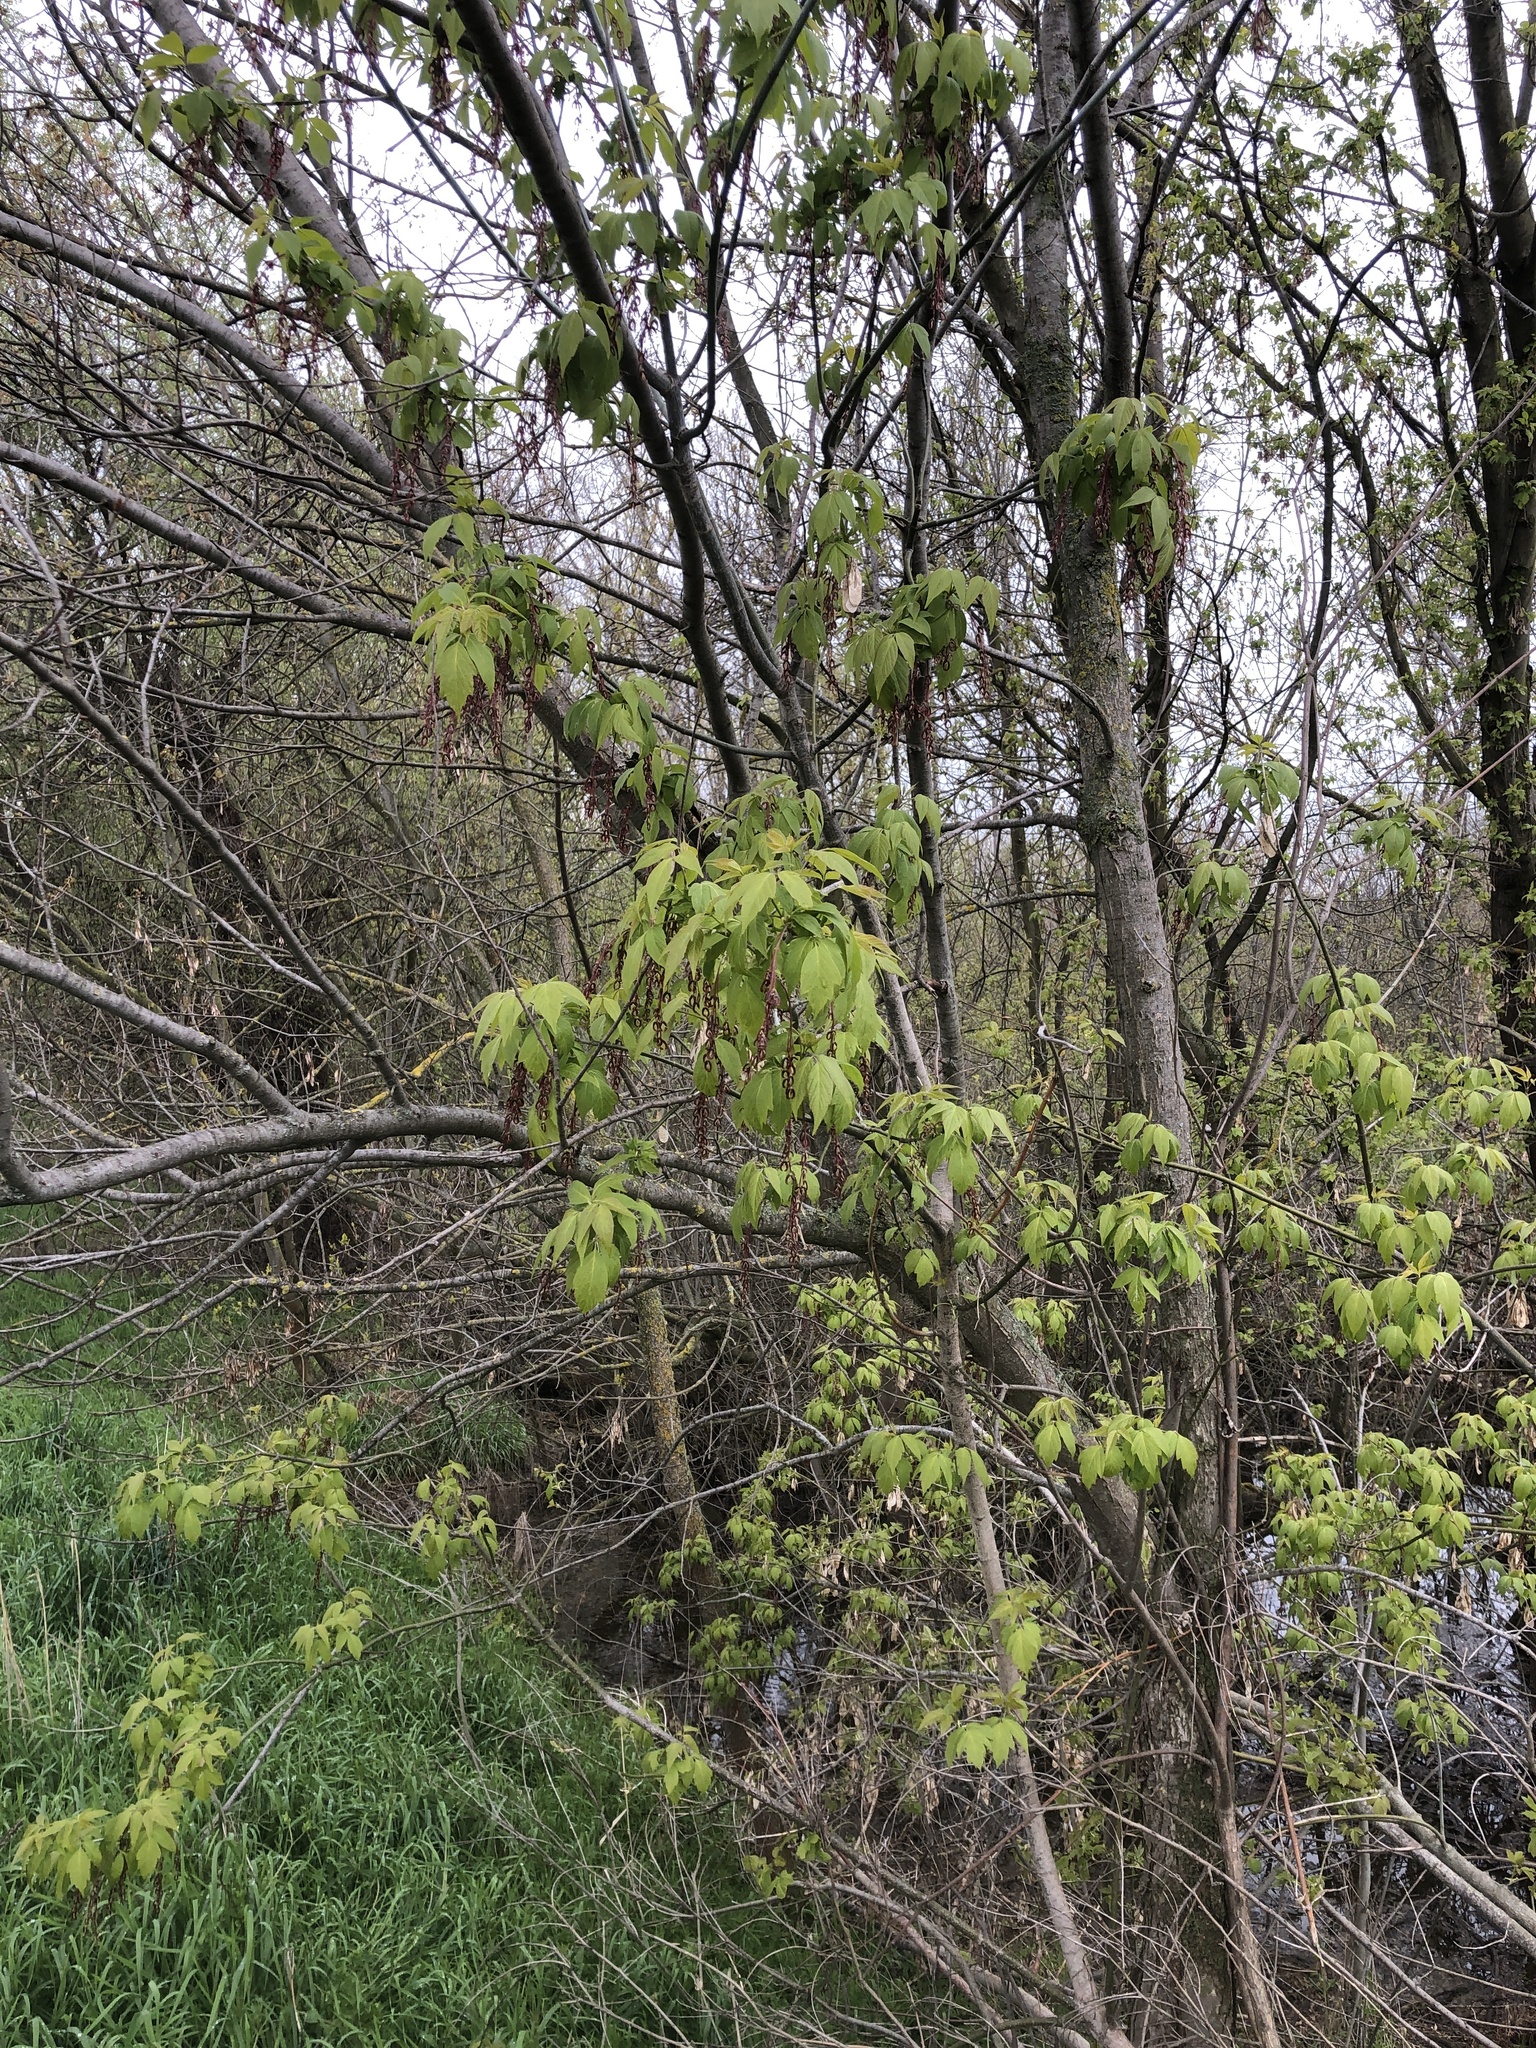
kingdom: Plantae
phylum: Tracheophyta
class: Magnoliopsida
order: Sapindales
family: Sapindaceae
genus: Acer
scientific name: Acer negundo
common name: Ashleaf maple
